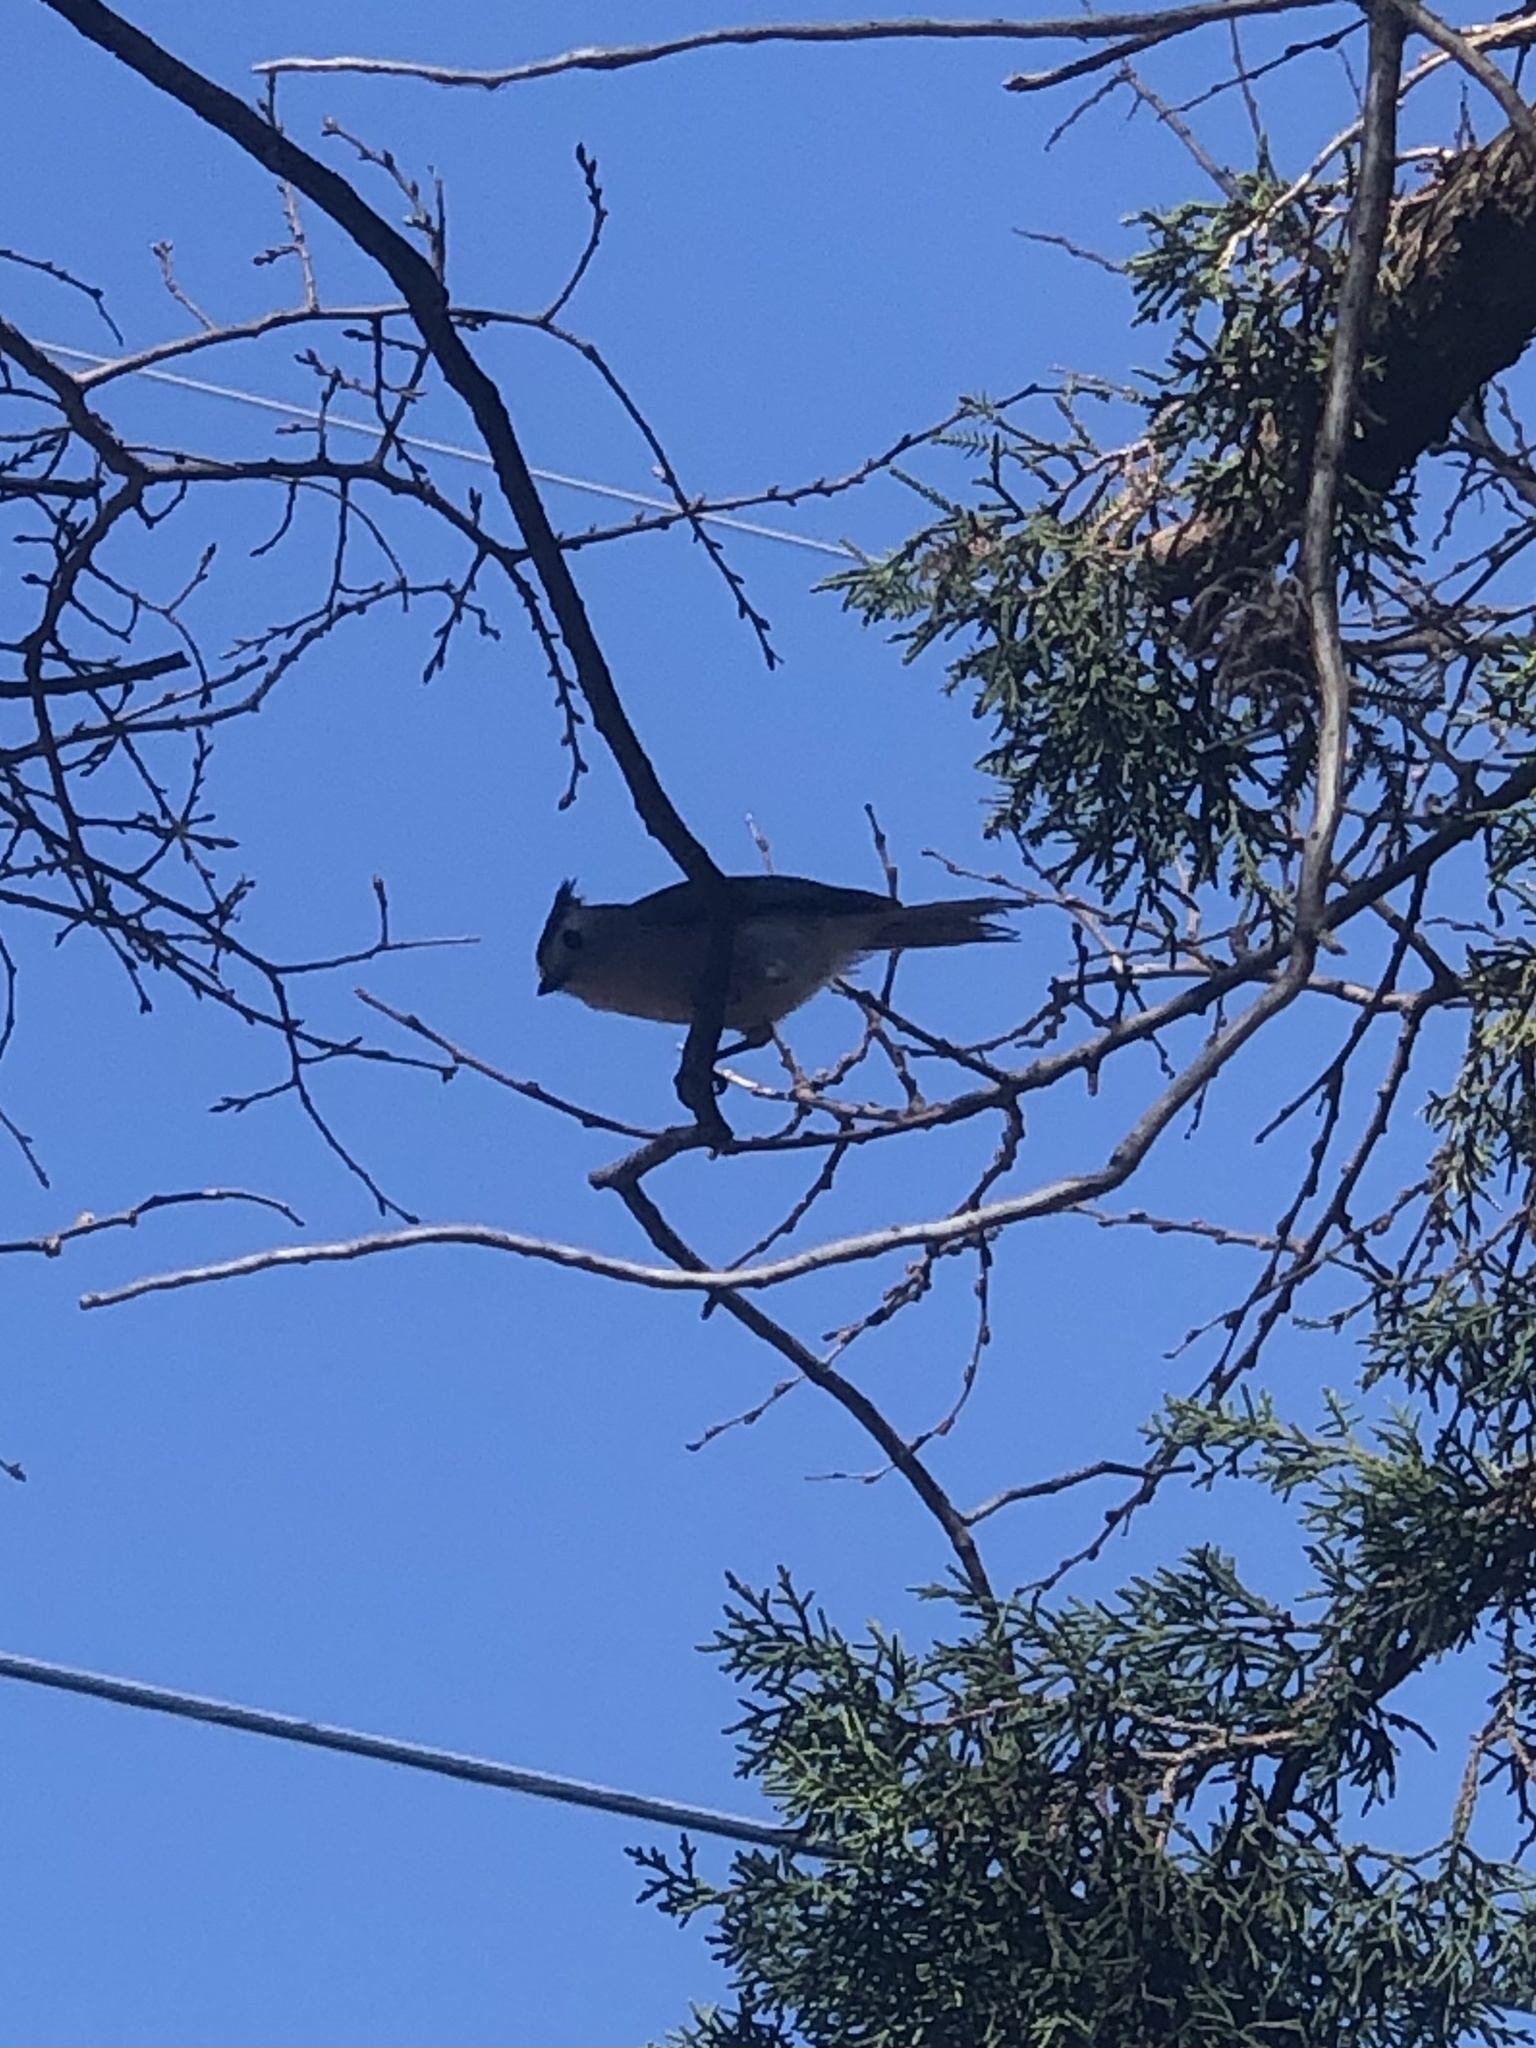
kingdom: Animalia
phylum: Chordata
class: Aves
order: Passeriformes
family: Paridae
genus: Baeolophus
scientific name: Baeolophus atricristatus
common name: Black-crested titmouse
